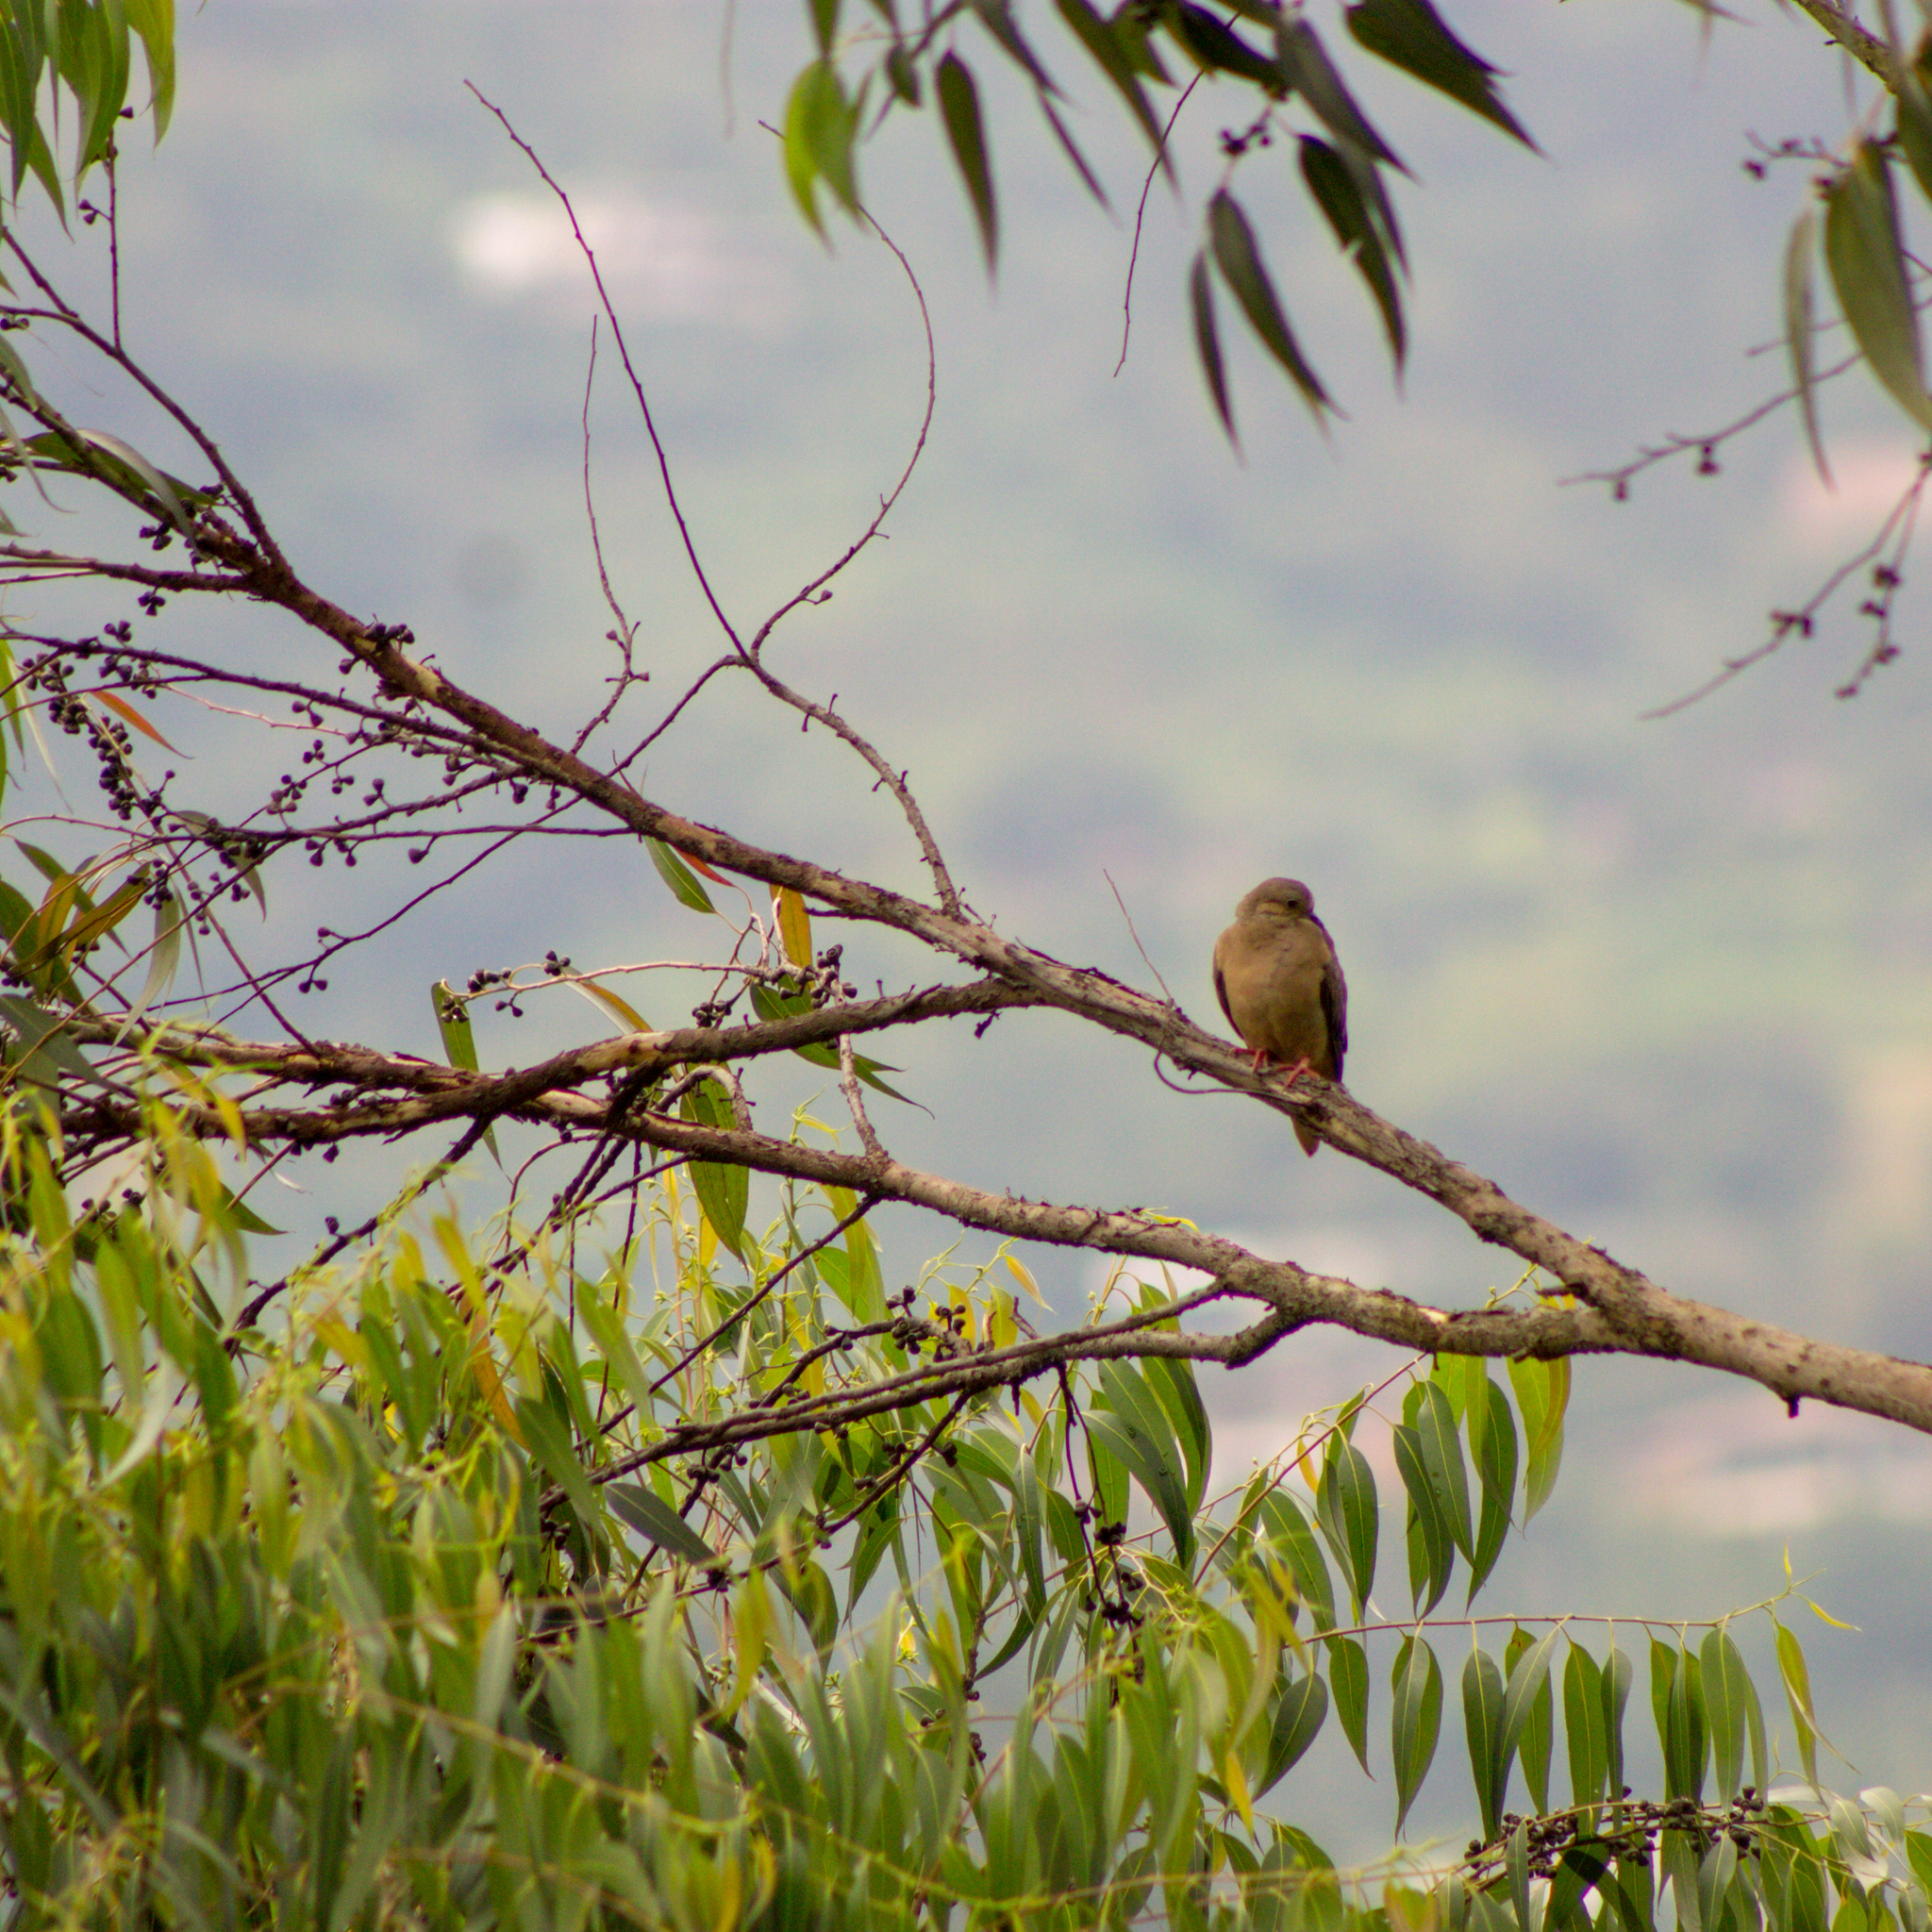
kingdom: Animalia
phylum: Chordata
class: Aves
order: Columbiformes
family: Columbidae
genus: Zenaida
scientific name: Zenaida auriculata
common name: Eared dove
